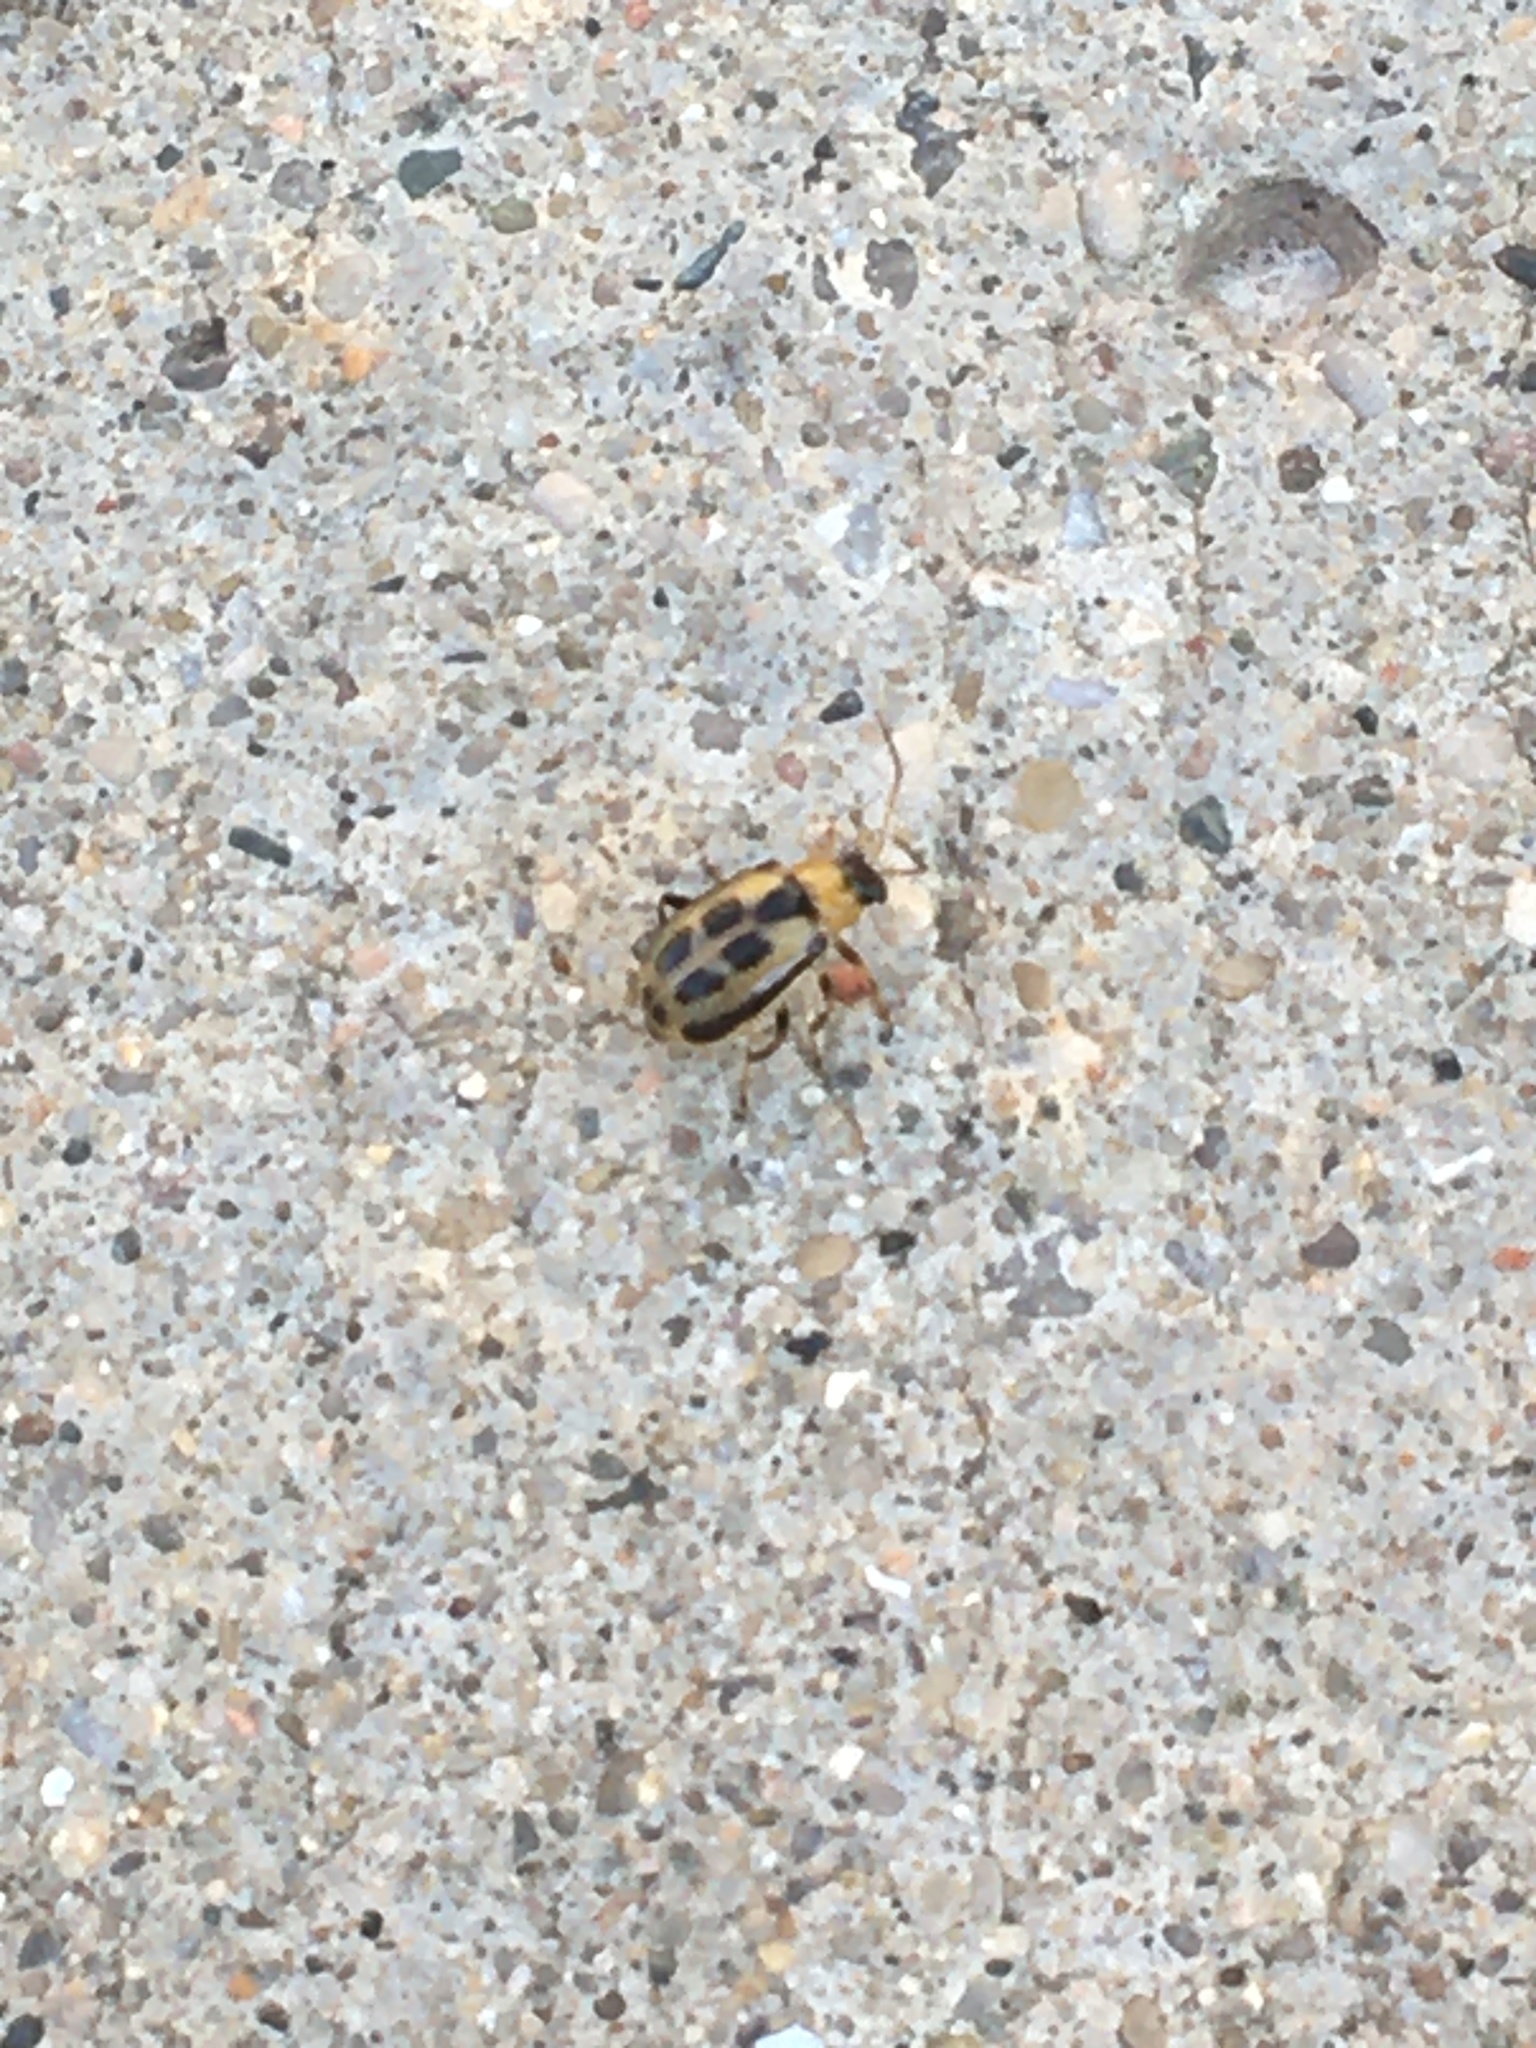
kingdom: Animalia
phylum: Arthropoda
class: Insecta
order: Coleoptera
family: Chrysomelidae
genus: Cerotoma
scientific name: Cerotoma trifurcata
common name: Bean leaf beetle
